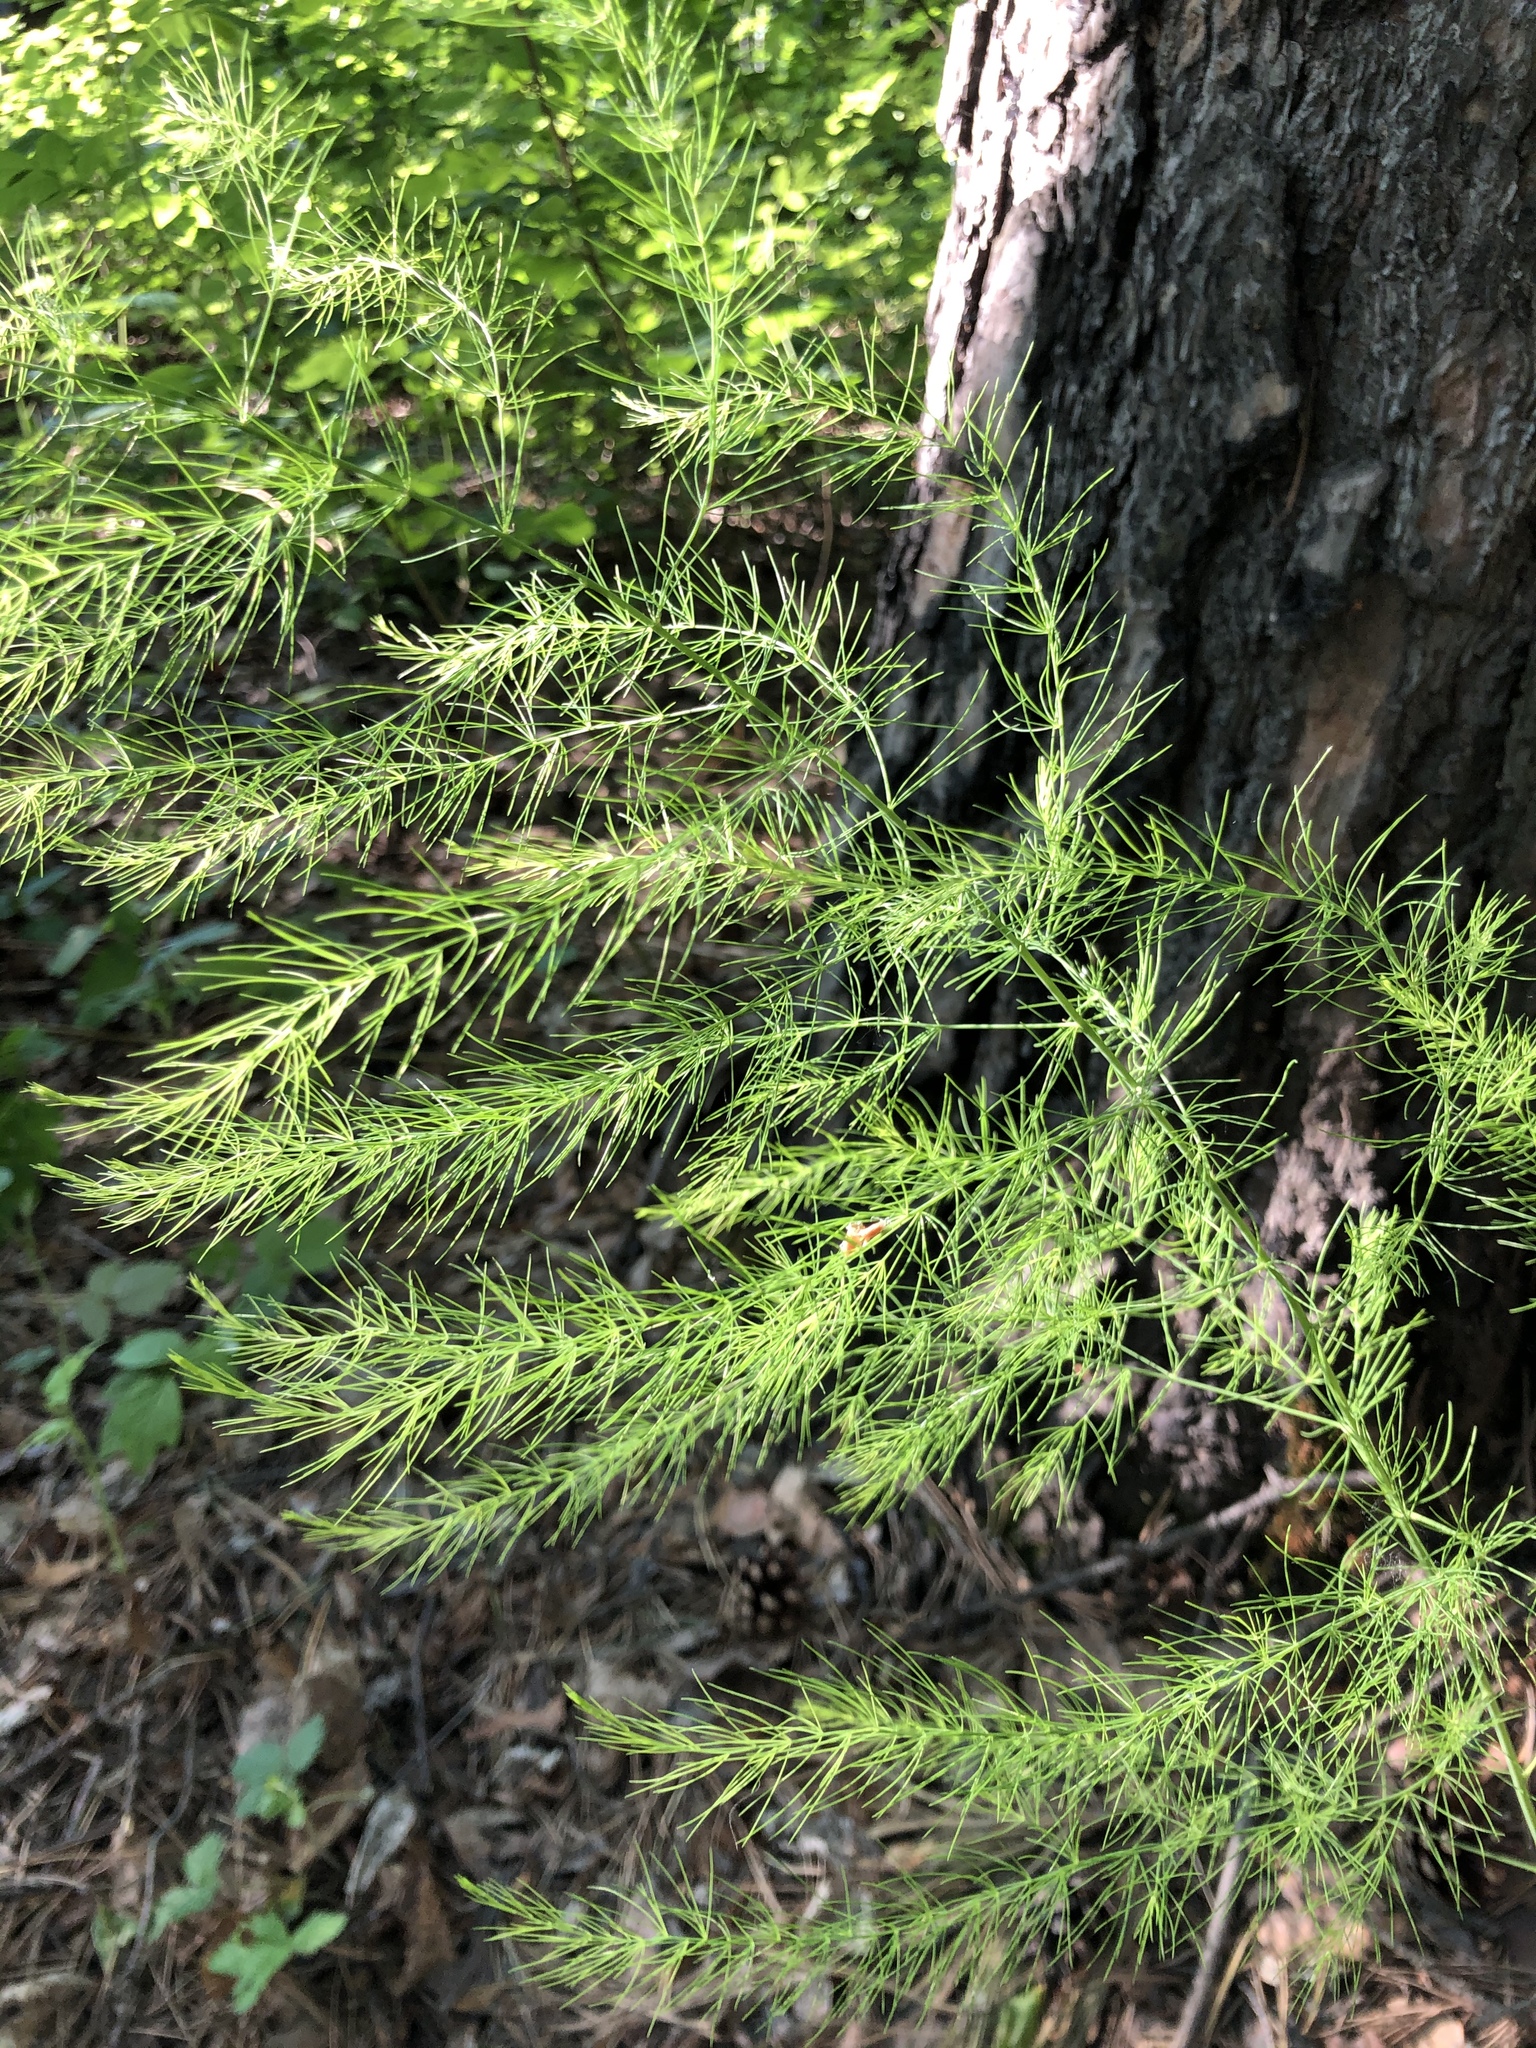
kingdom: Plantae
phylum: Tracheophyta
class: Liliopsida
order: Asparagales
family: Asparagaceae
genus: Asparagus
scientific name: Asparagus officinalis
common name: Garden asparagus
